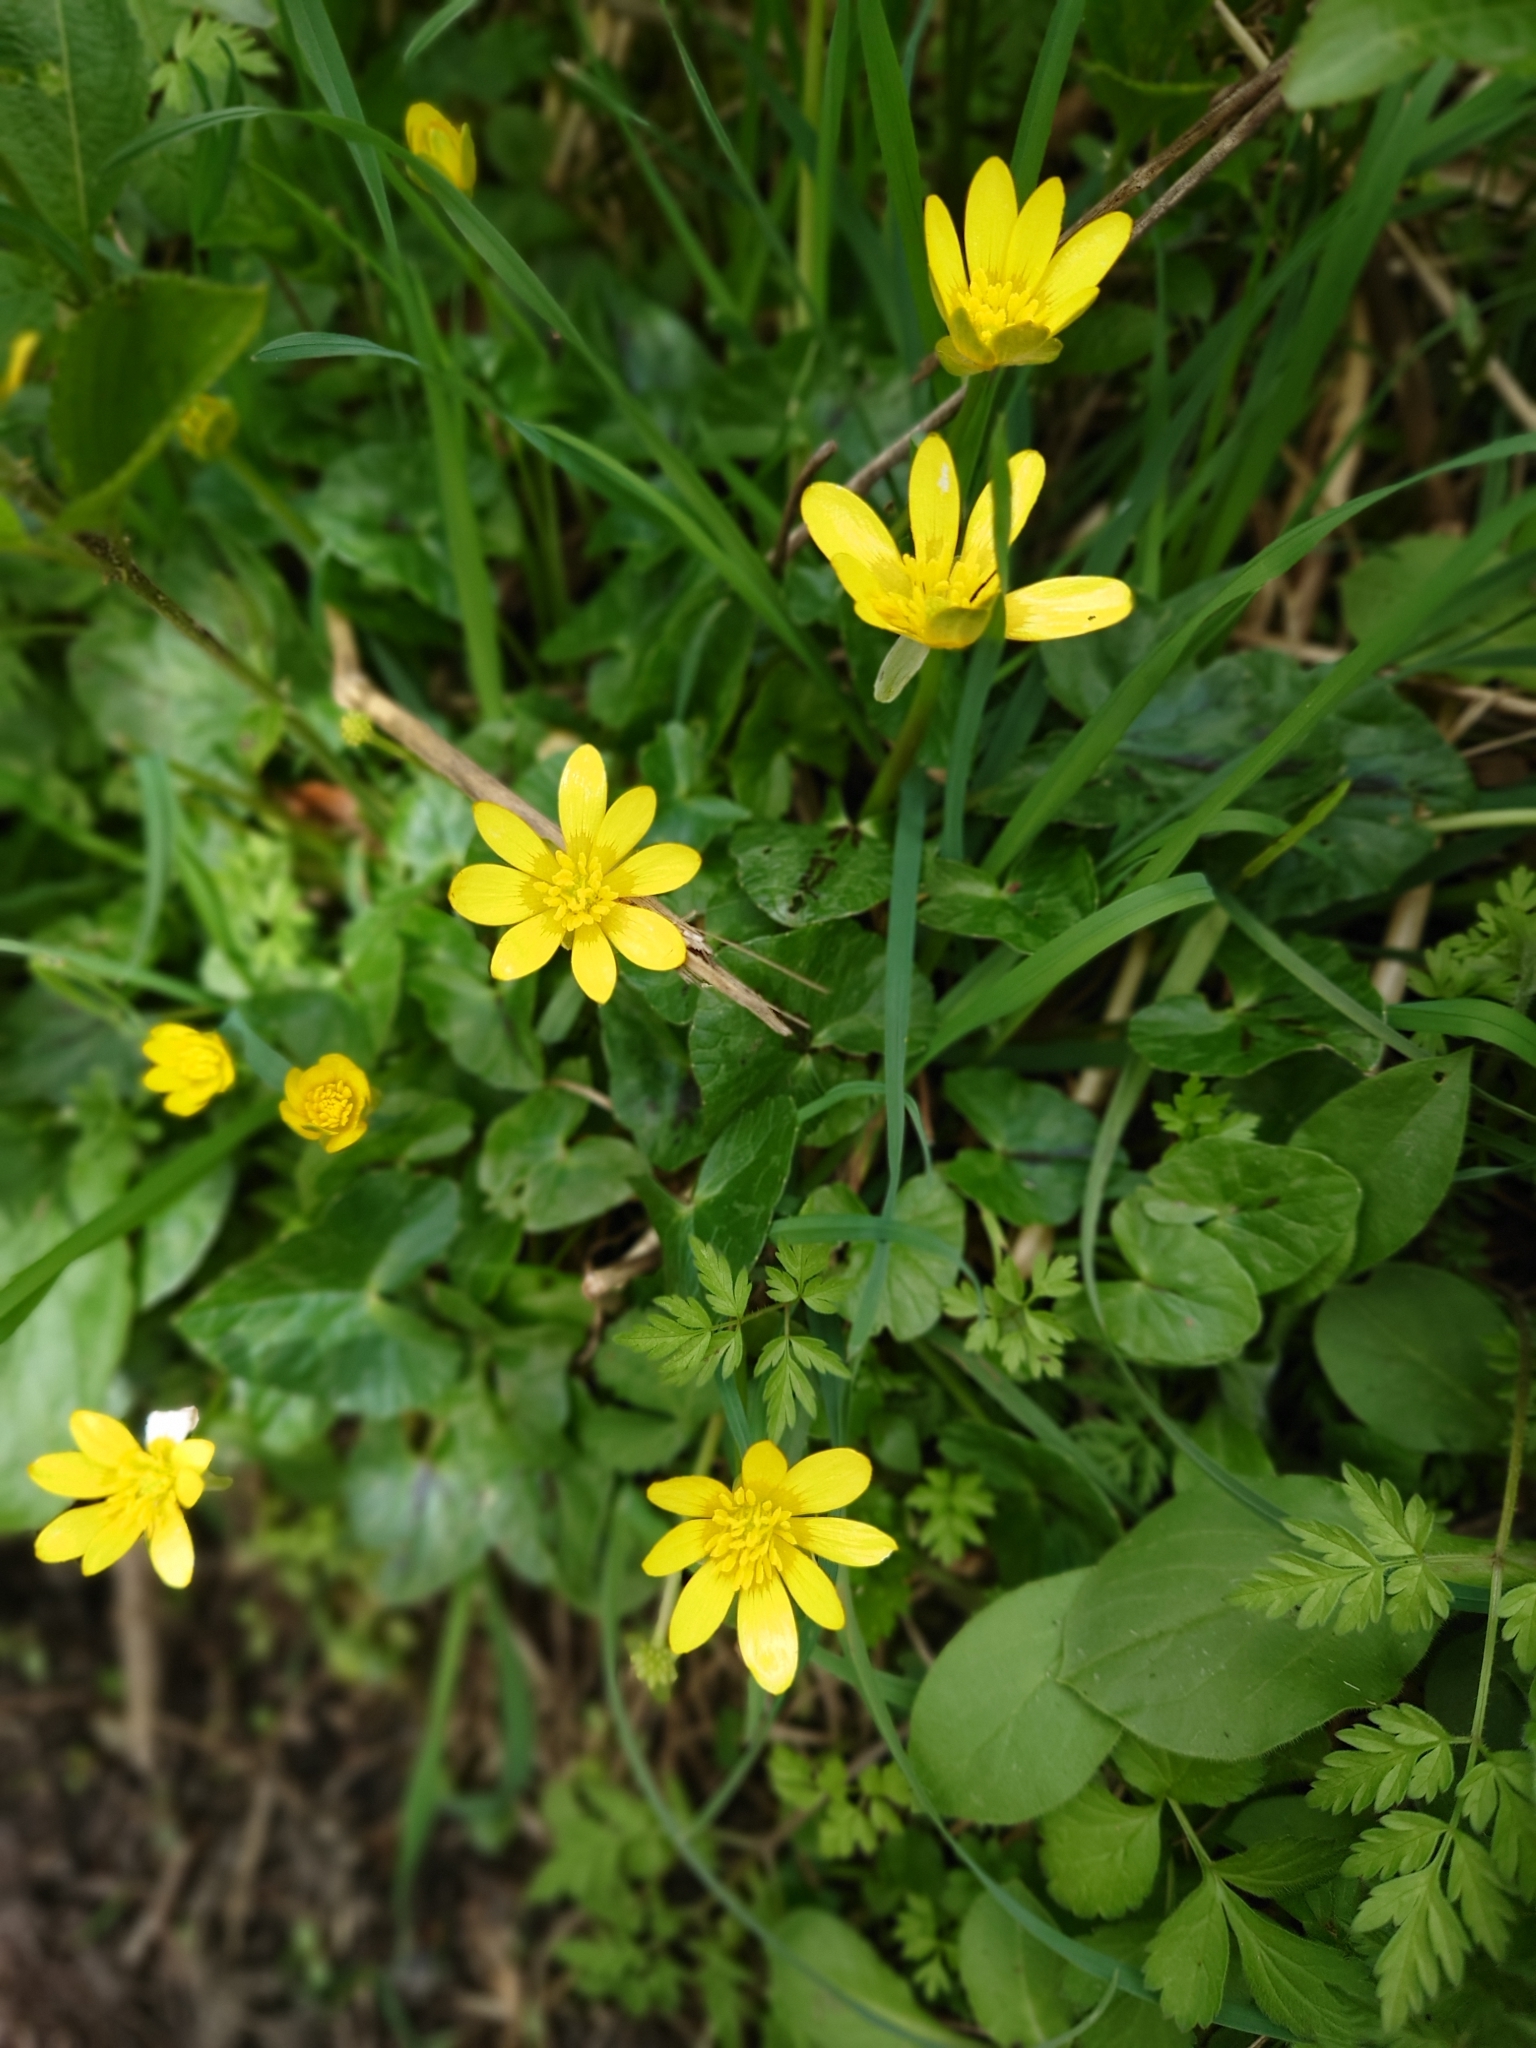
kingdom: Plantae
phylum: Tracheophyta
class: Magnoliopsida
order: Ranunculales
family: Ranunculaceae
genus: Ficaria
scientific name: Ficaria verna
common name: Lesser celandine
